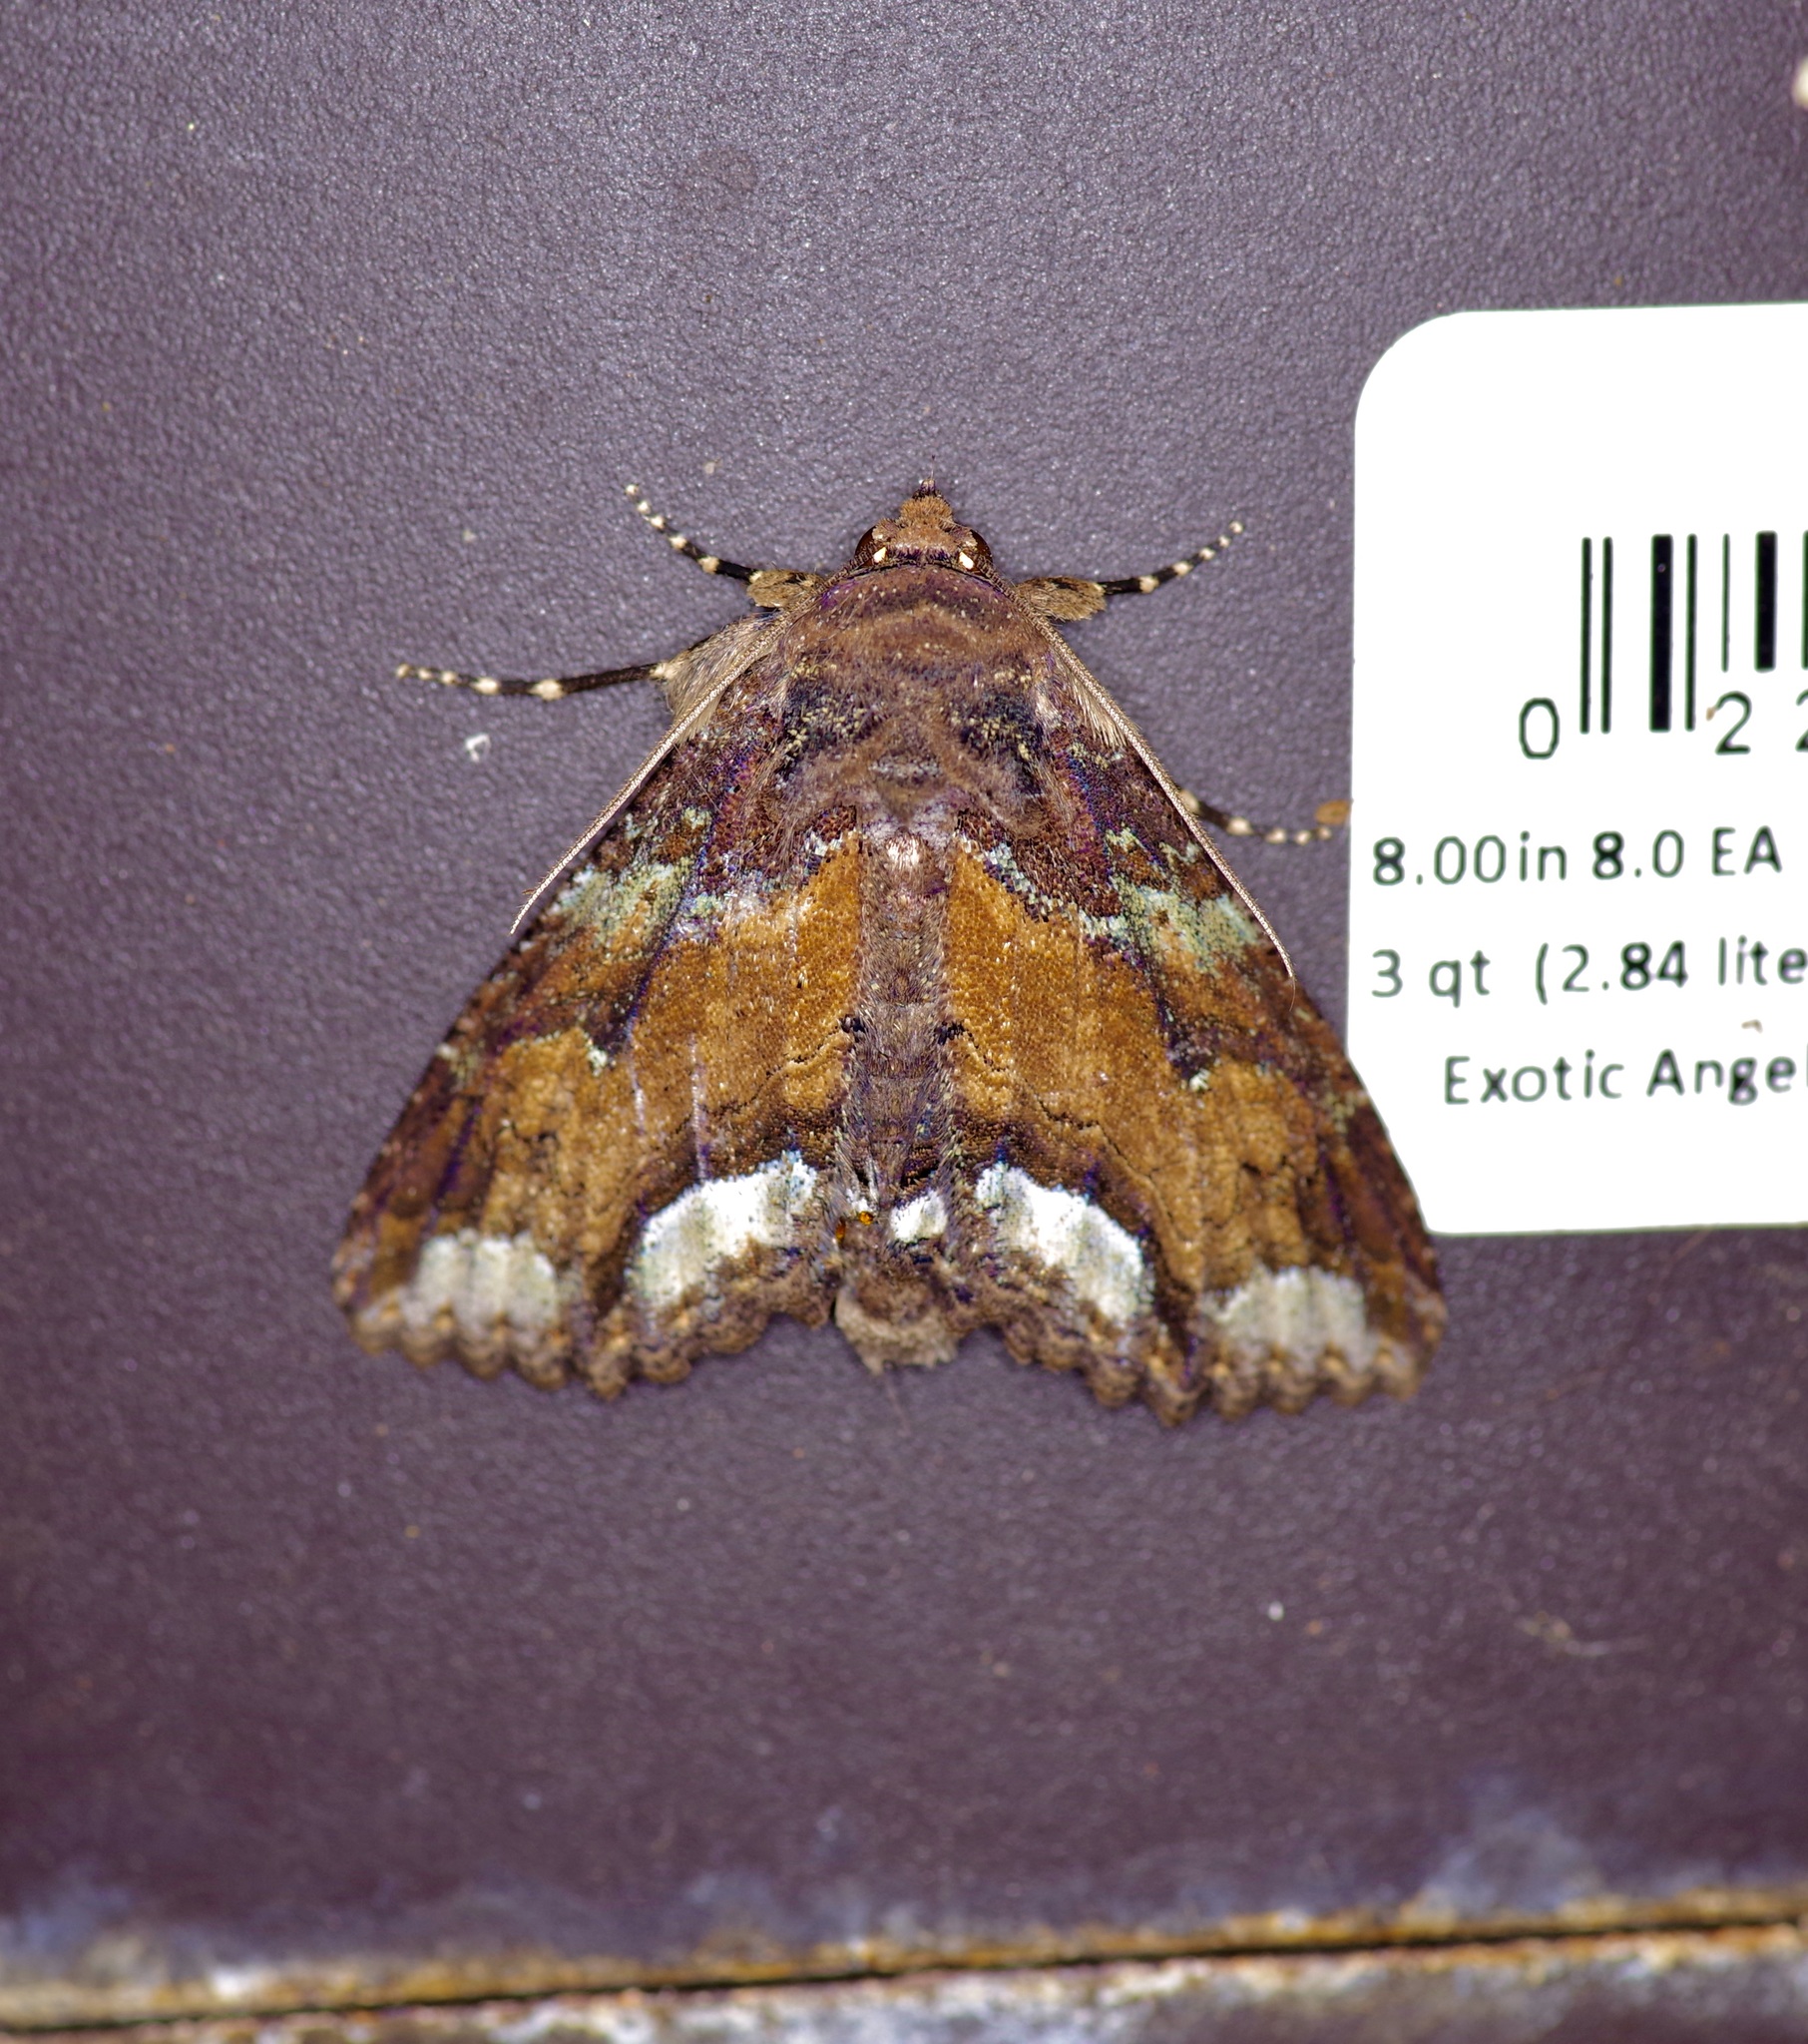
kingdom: Animalia
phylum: Arthropoda
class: Insecta
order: Lepidoptera
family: Erebidae
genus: Zale
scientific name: Zale lunata
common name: Lunate zale moth
